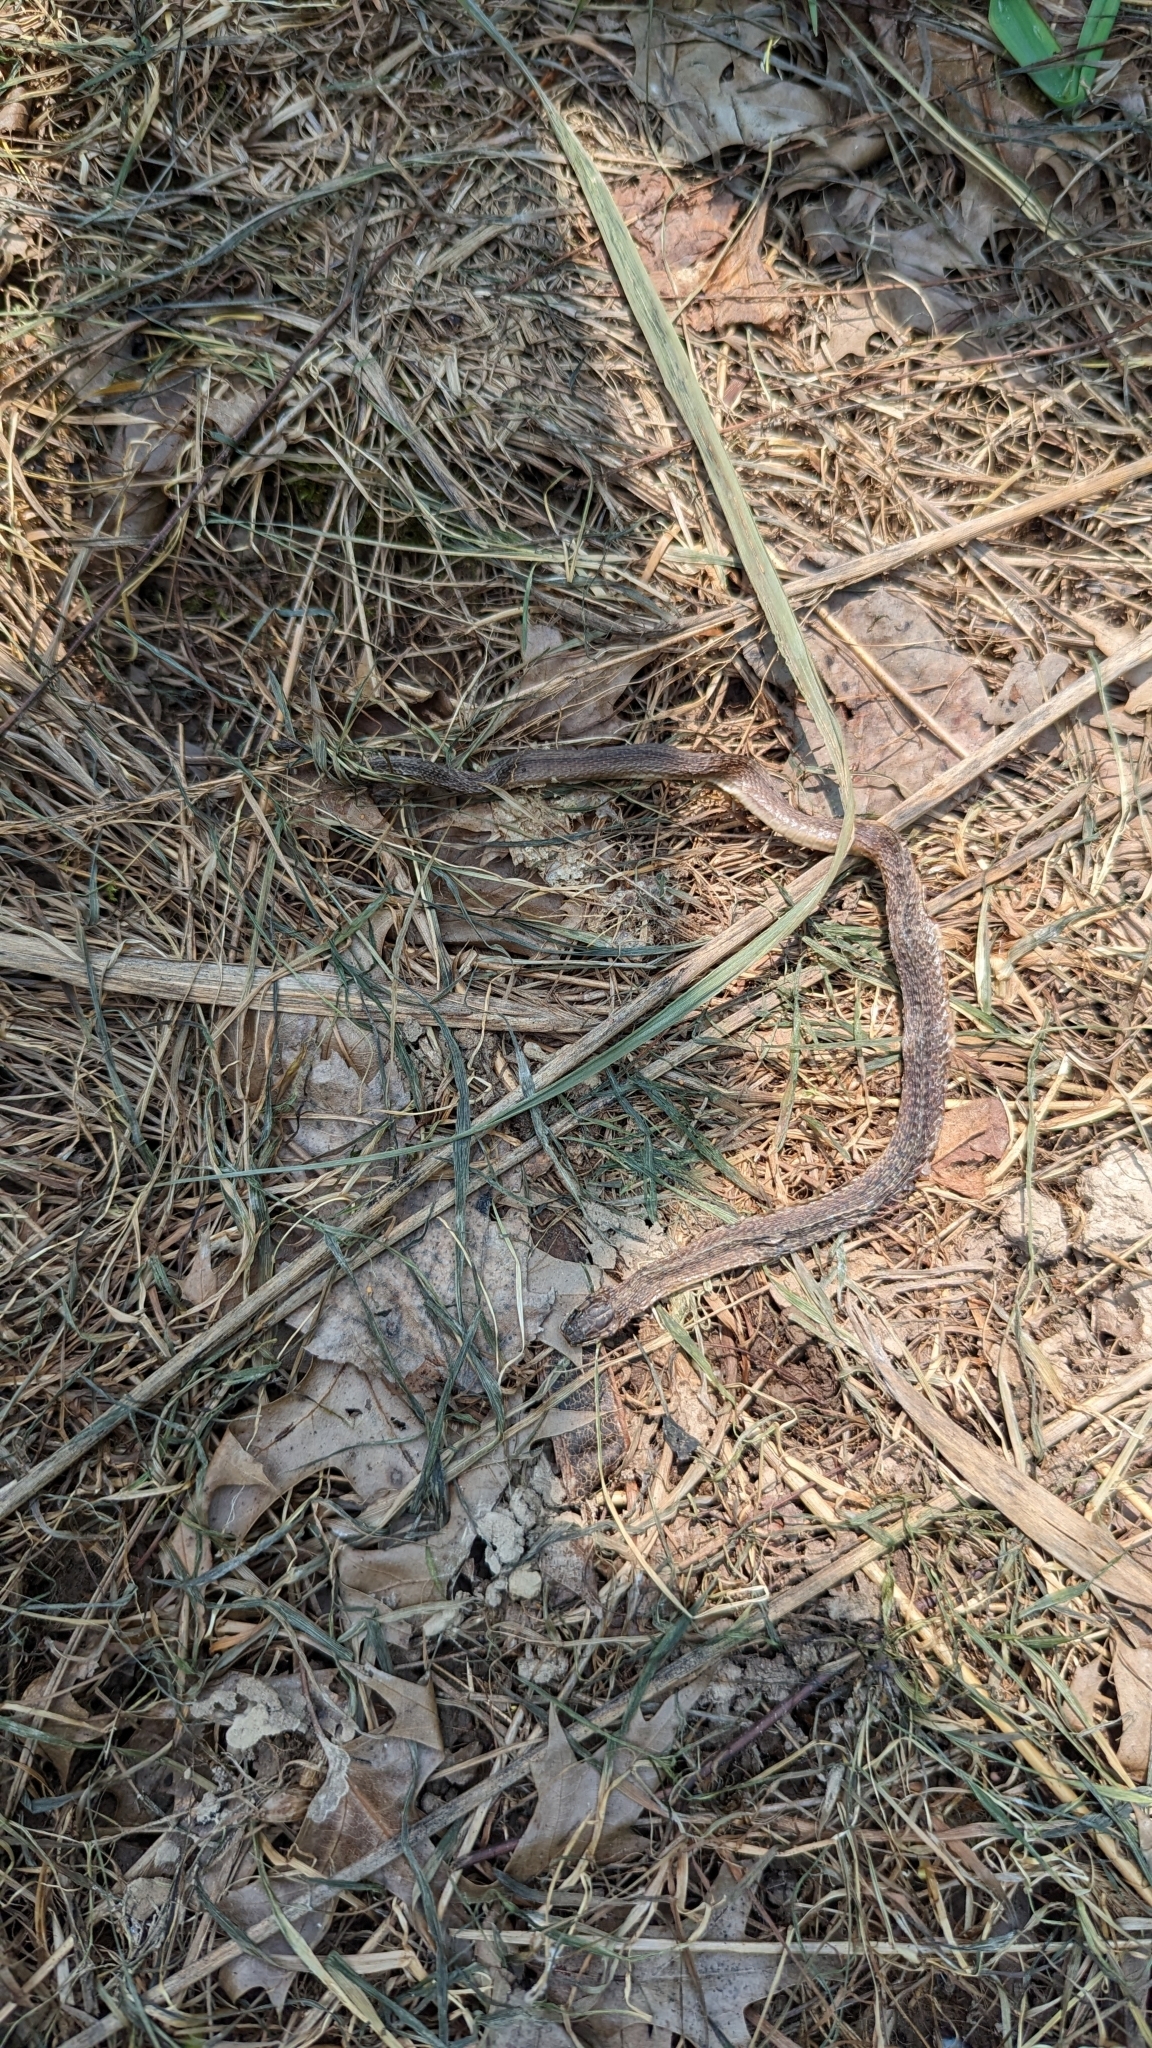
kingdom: Animalia
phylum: Chordata
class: Squamata
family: Colubridae
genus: Storeria
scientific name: Storeria dekayi
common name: (dekay’s) brown snake
